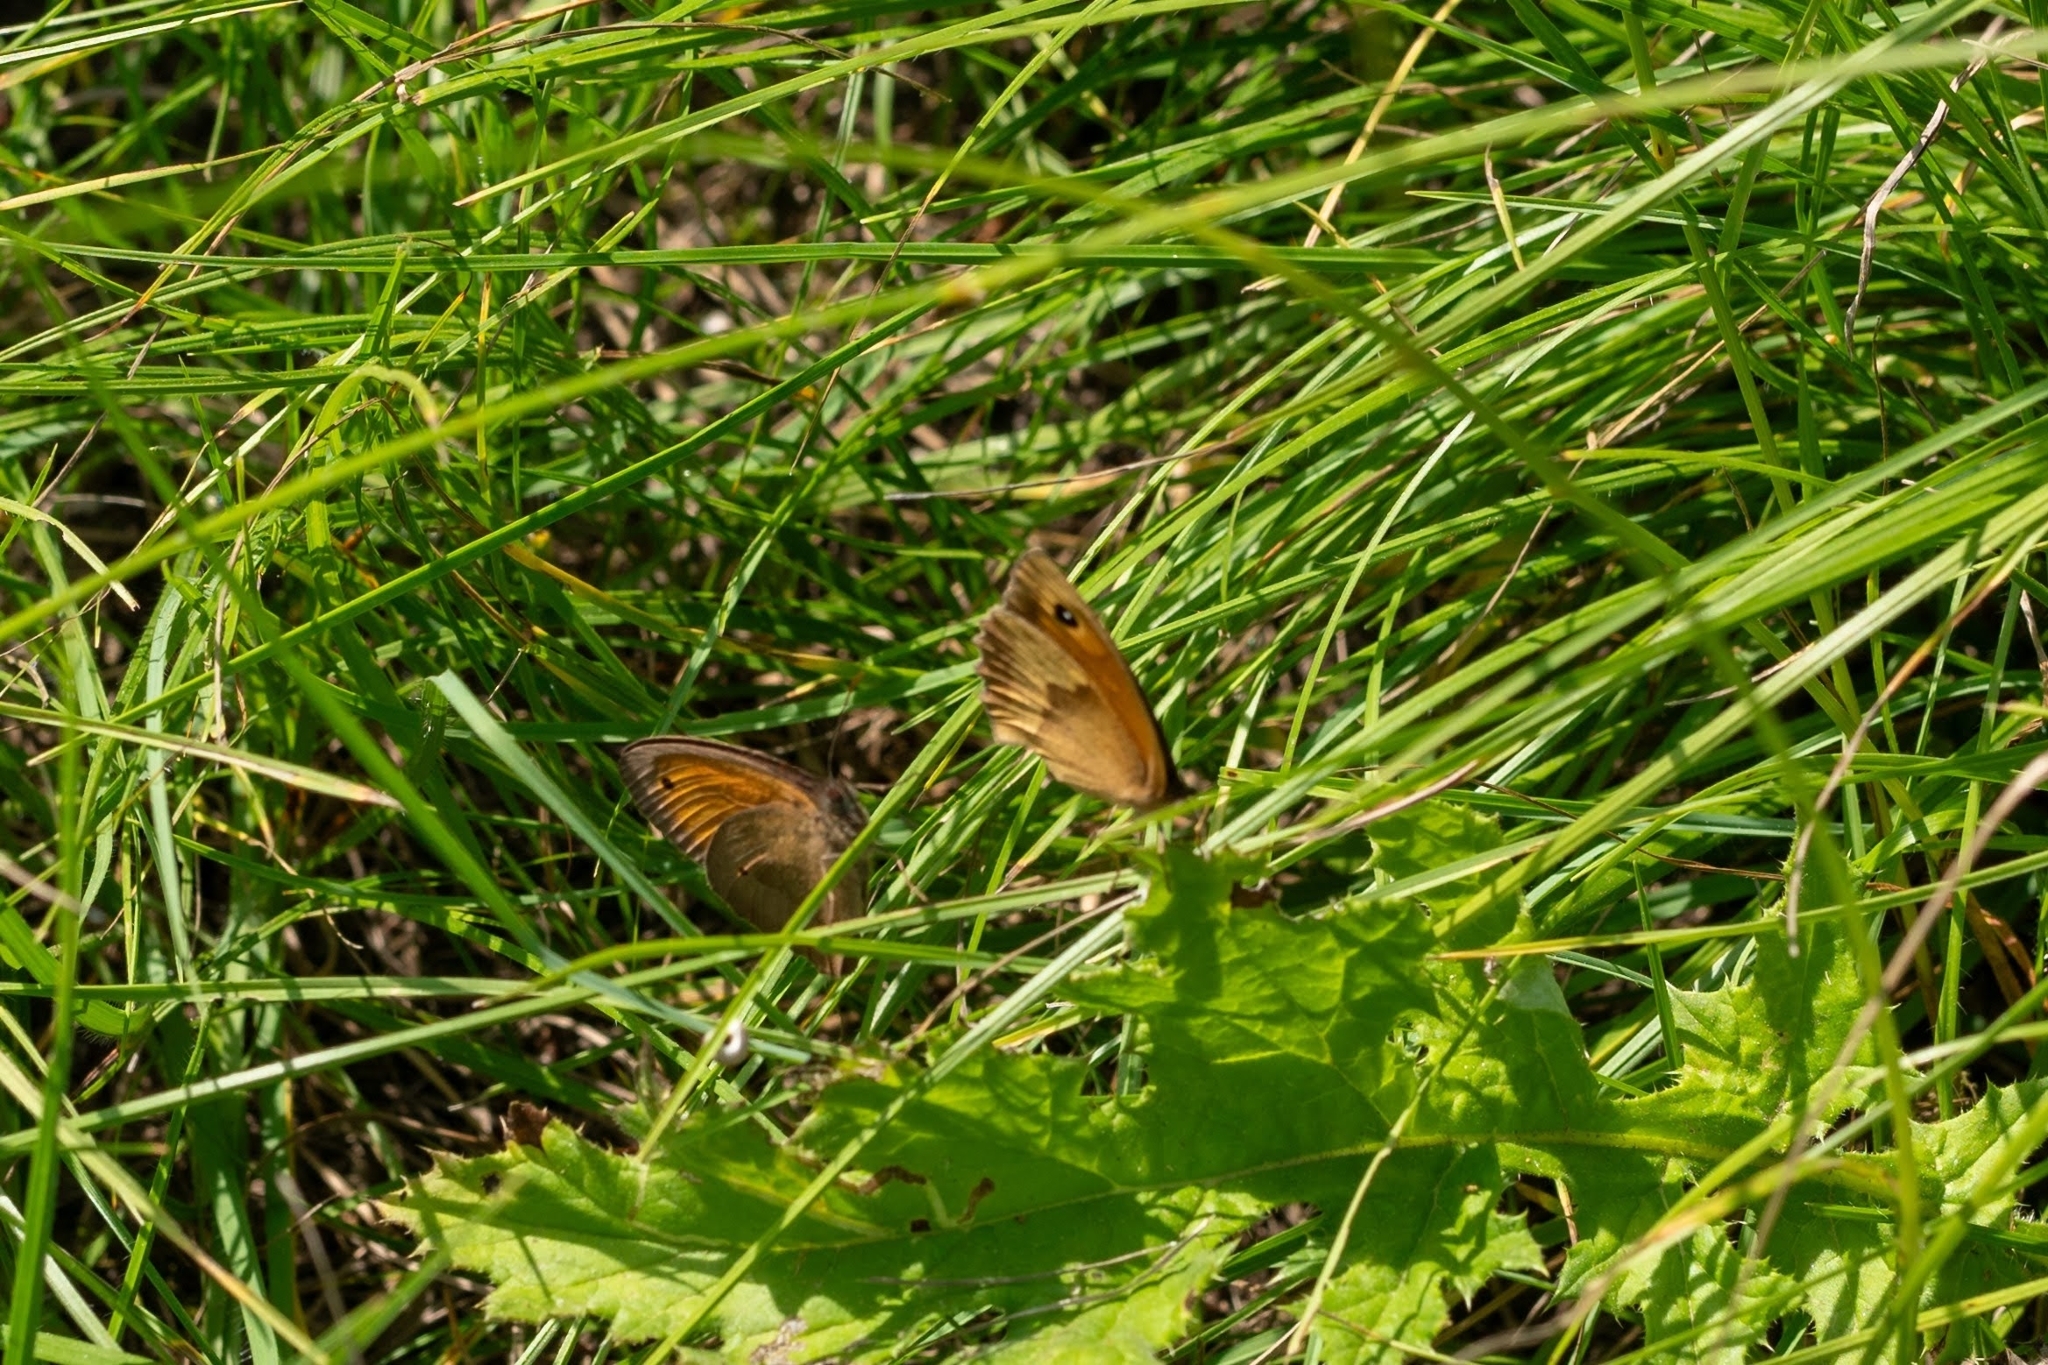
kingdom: Animalia
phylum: Arthropoda
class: Insecta
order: Lepidoptera
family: Nymphalidae
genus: Maniola
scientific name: Maniola jurtina
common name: Meadow brown
